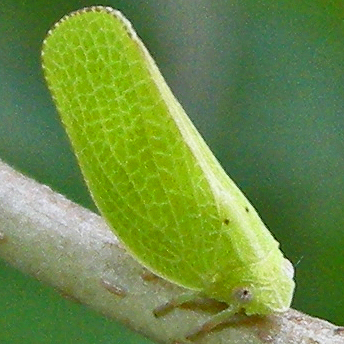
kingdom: Animalia
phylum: Arthropoda
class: Insecta
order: Hemiptera
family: Acanaloniidae
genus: Acanalonia
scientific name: Acanalonia conica
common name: Green cone-headed planthopper
